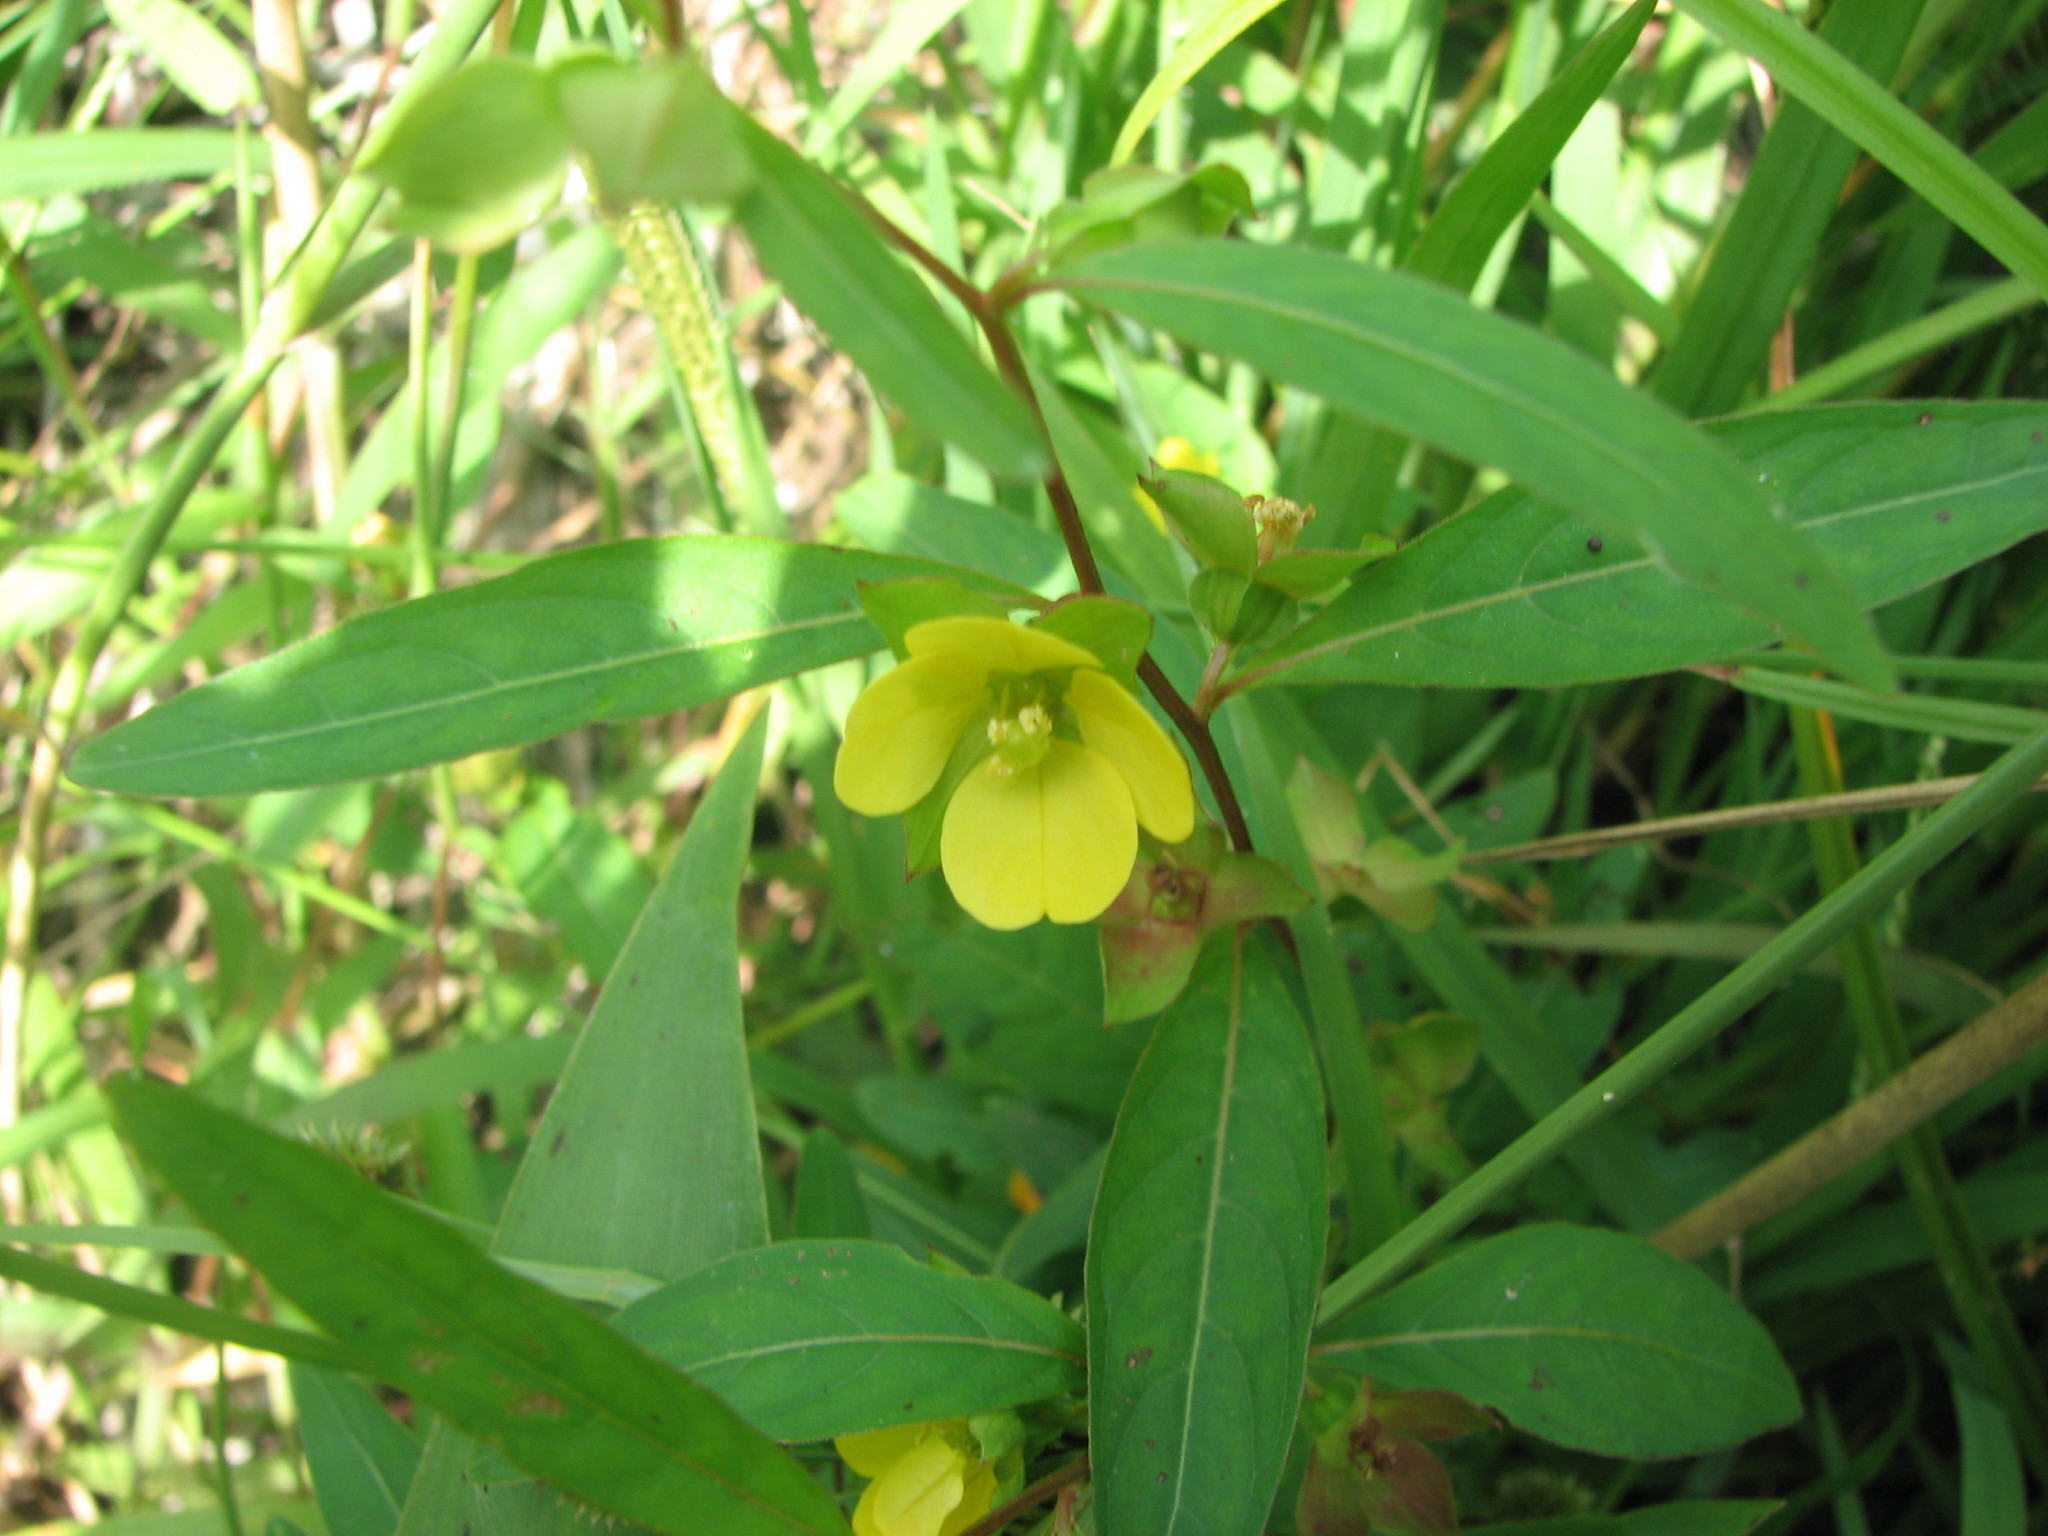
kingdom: Plantae
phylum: Tracheophyta
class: Magnoliopsida
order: Myrtales
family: Onagraceae
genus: Ludwigia
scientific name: Ludwigia alternifolia
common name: Rattlebox
